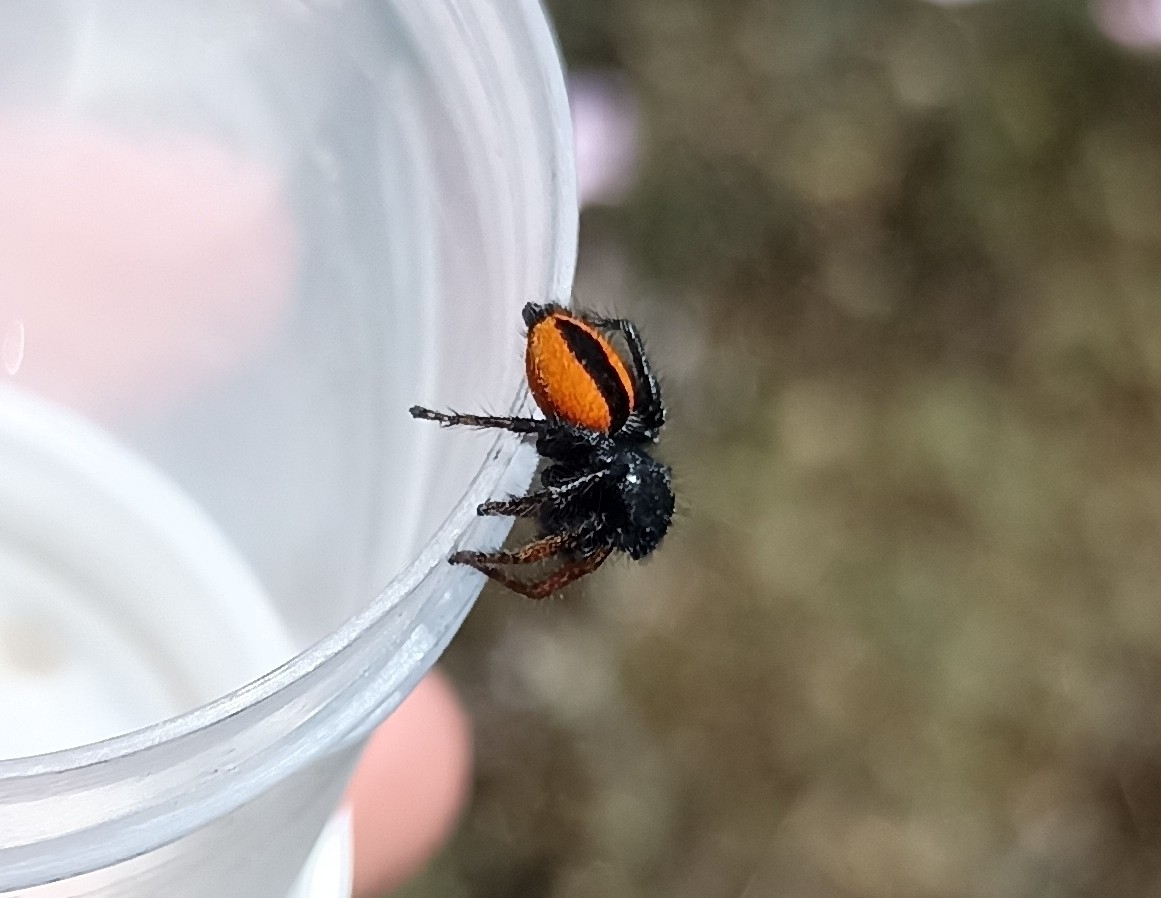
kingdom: Animalia
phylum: Arthropoda
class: Arachnida
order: Araneae
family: Salticidae
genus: Philaeus
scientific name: Philaeus chrysops
